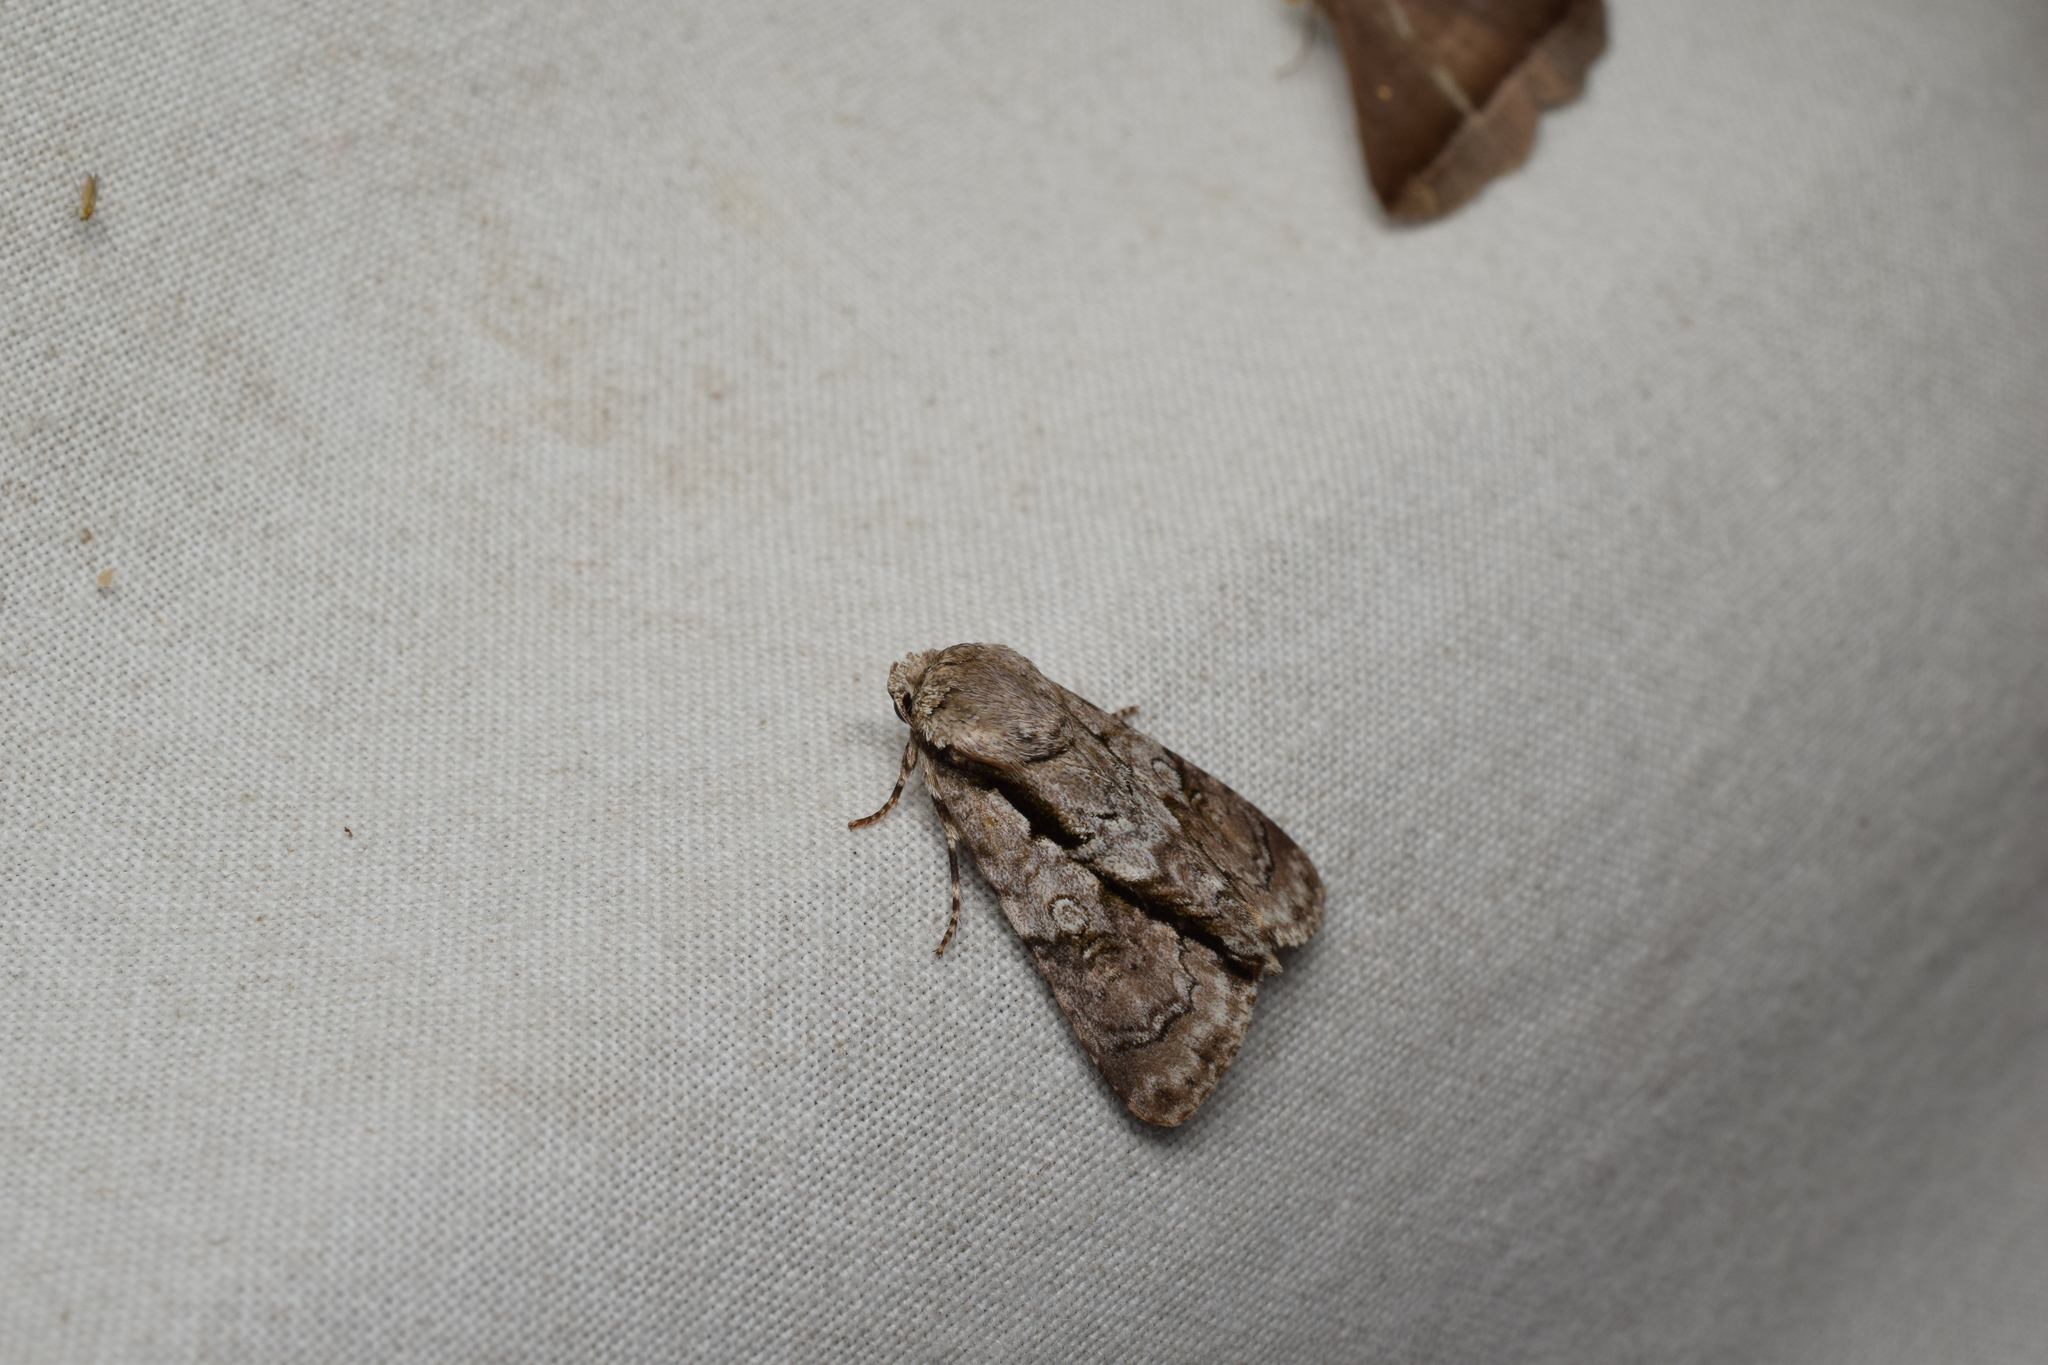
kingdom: Animalia
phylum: Arthropoda
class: Insecta
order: Lepidoptera
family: Noctuidae
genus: Fascionycta
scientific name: Fascionycta fasciata
